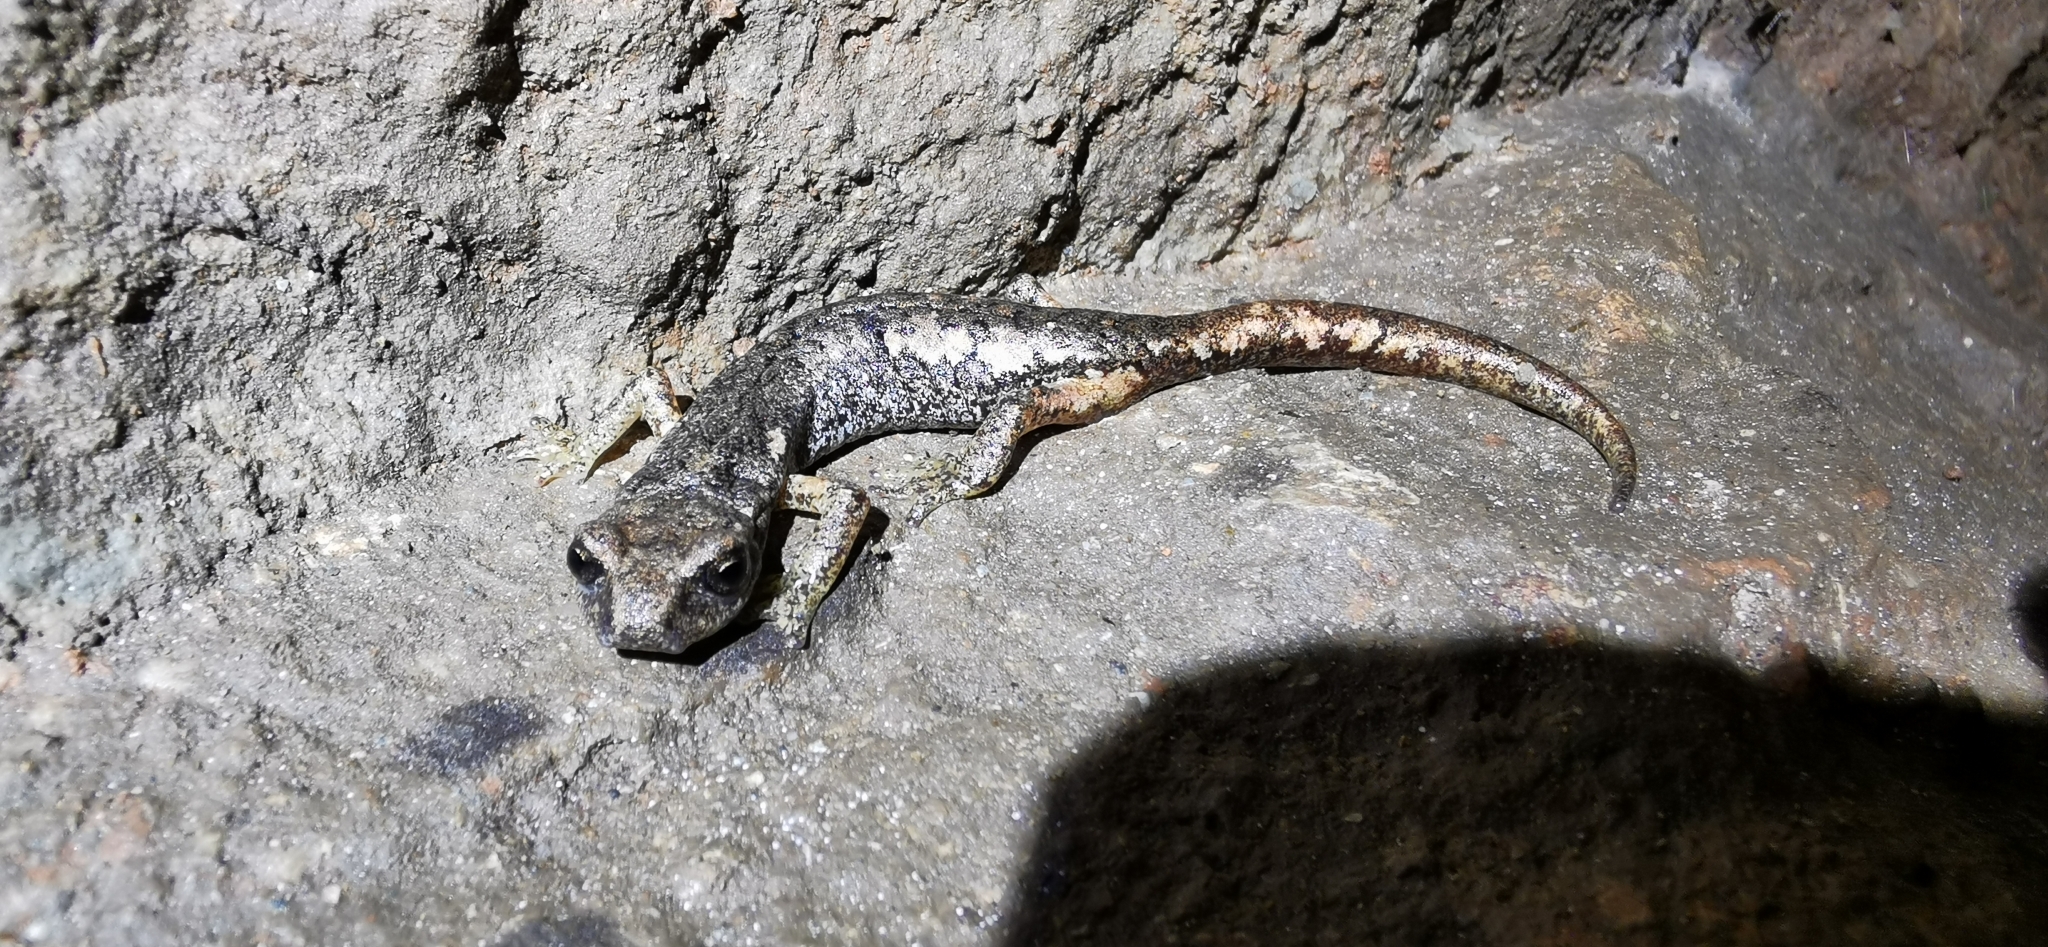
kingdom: Animalia
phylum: Chordata
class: Amphibia
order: Caudata
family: Plethodontidae
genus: Speleomantes
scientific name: Speleomantes ambrosii
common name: Ambrosi's cave salamander
